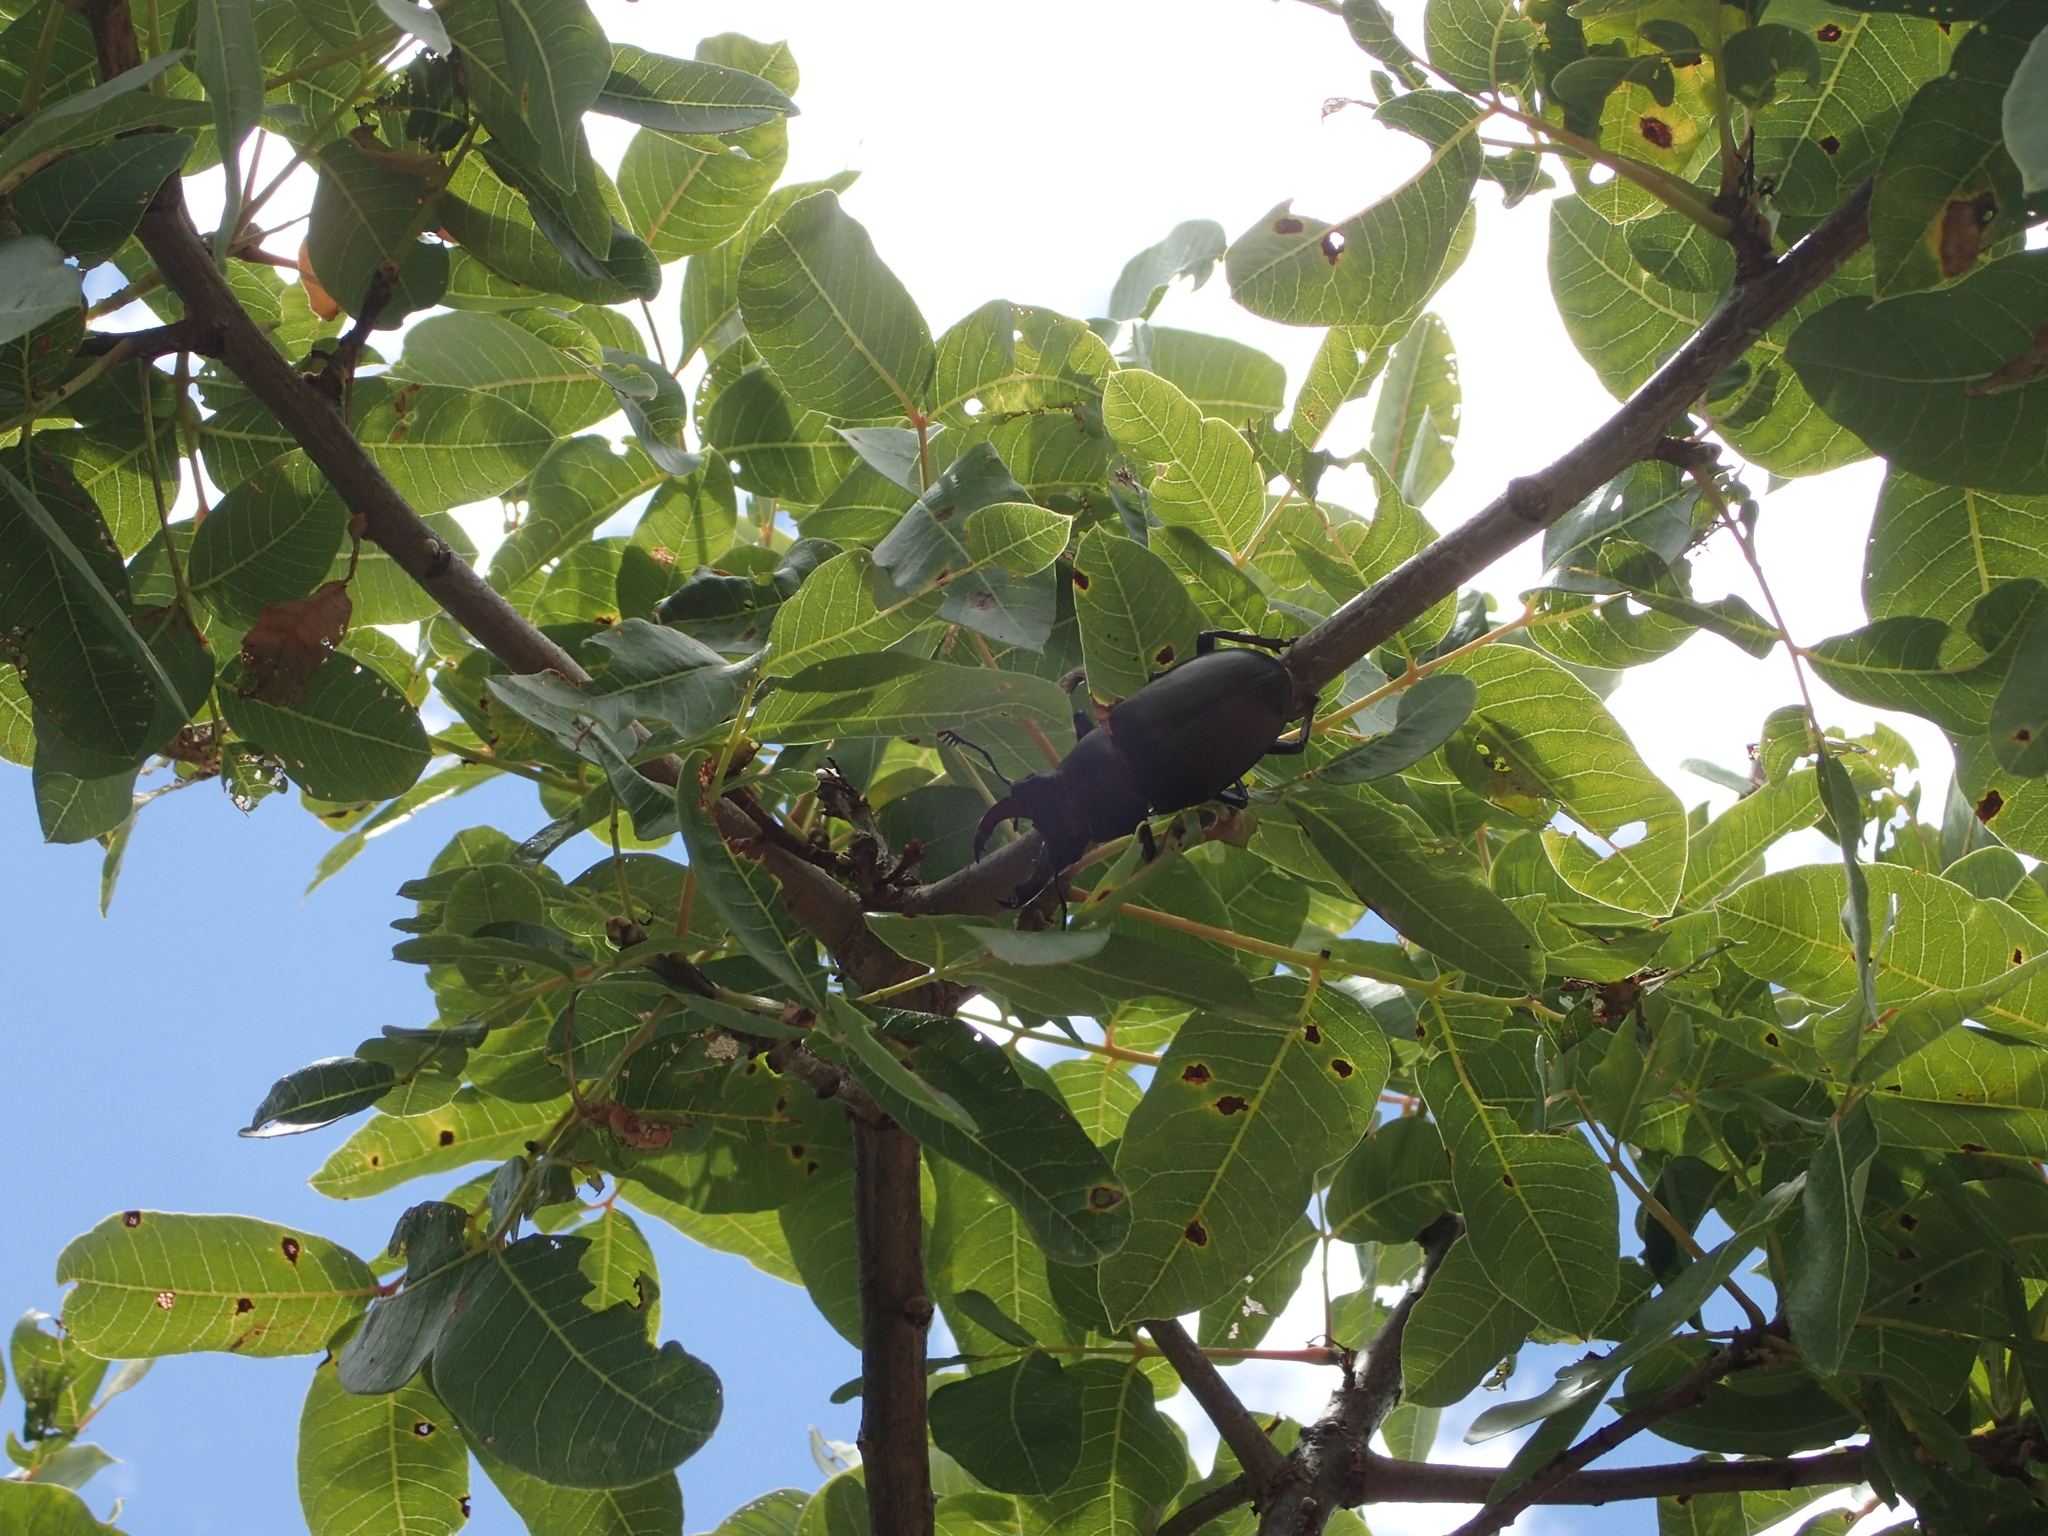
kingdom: Animalia
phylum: Arthropoda
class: Insecta
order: Coleoptera
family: Lucanidae
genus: Lucanus
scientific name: Lucanus cervus
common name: Stag beetle
